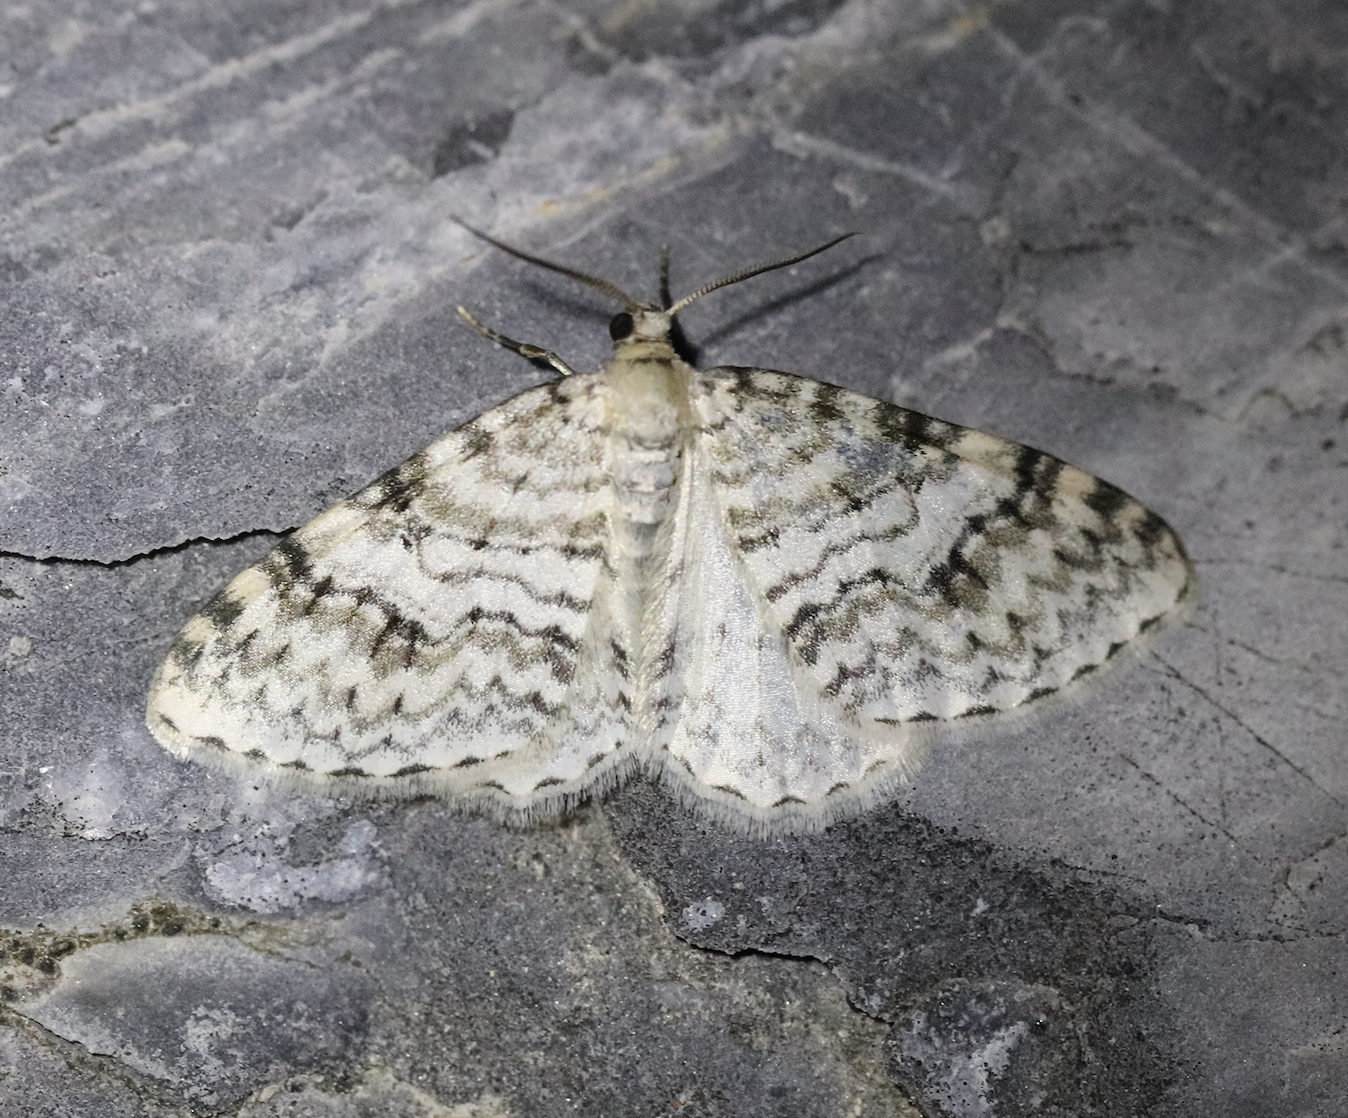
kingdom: Animalia
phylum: Arthropoda
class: Insecta
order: Lepidoptera
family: Geometridae
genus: Venusia
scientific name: Venusia cambrica
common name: Welsh wave
